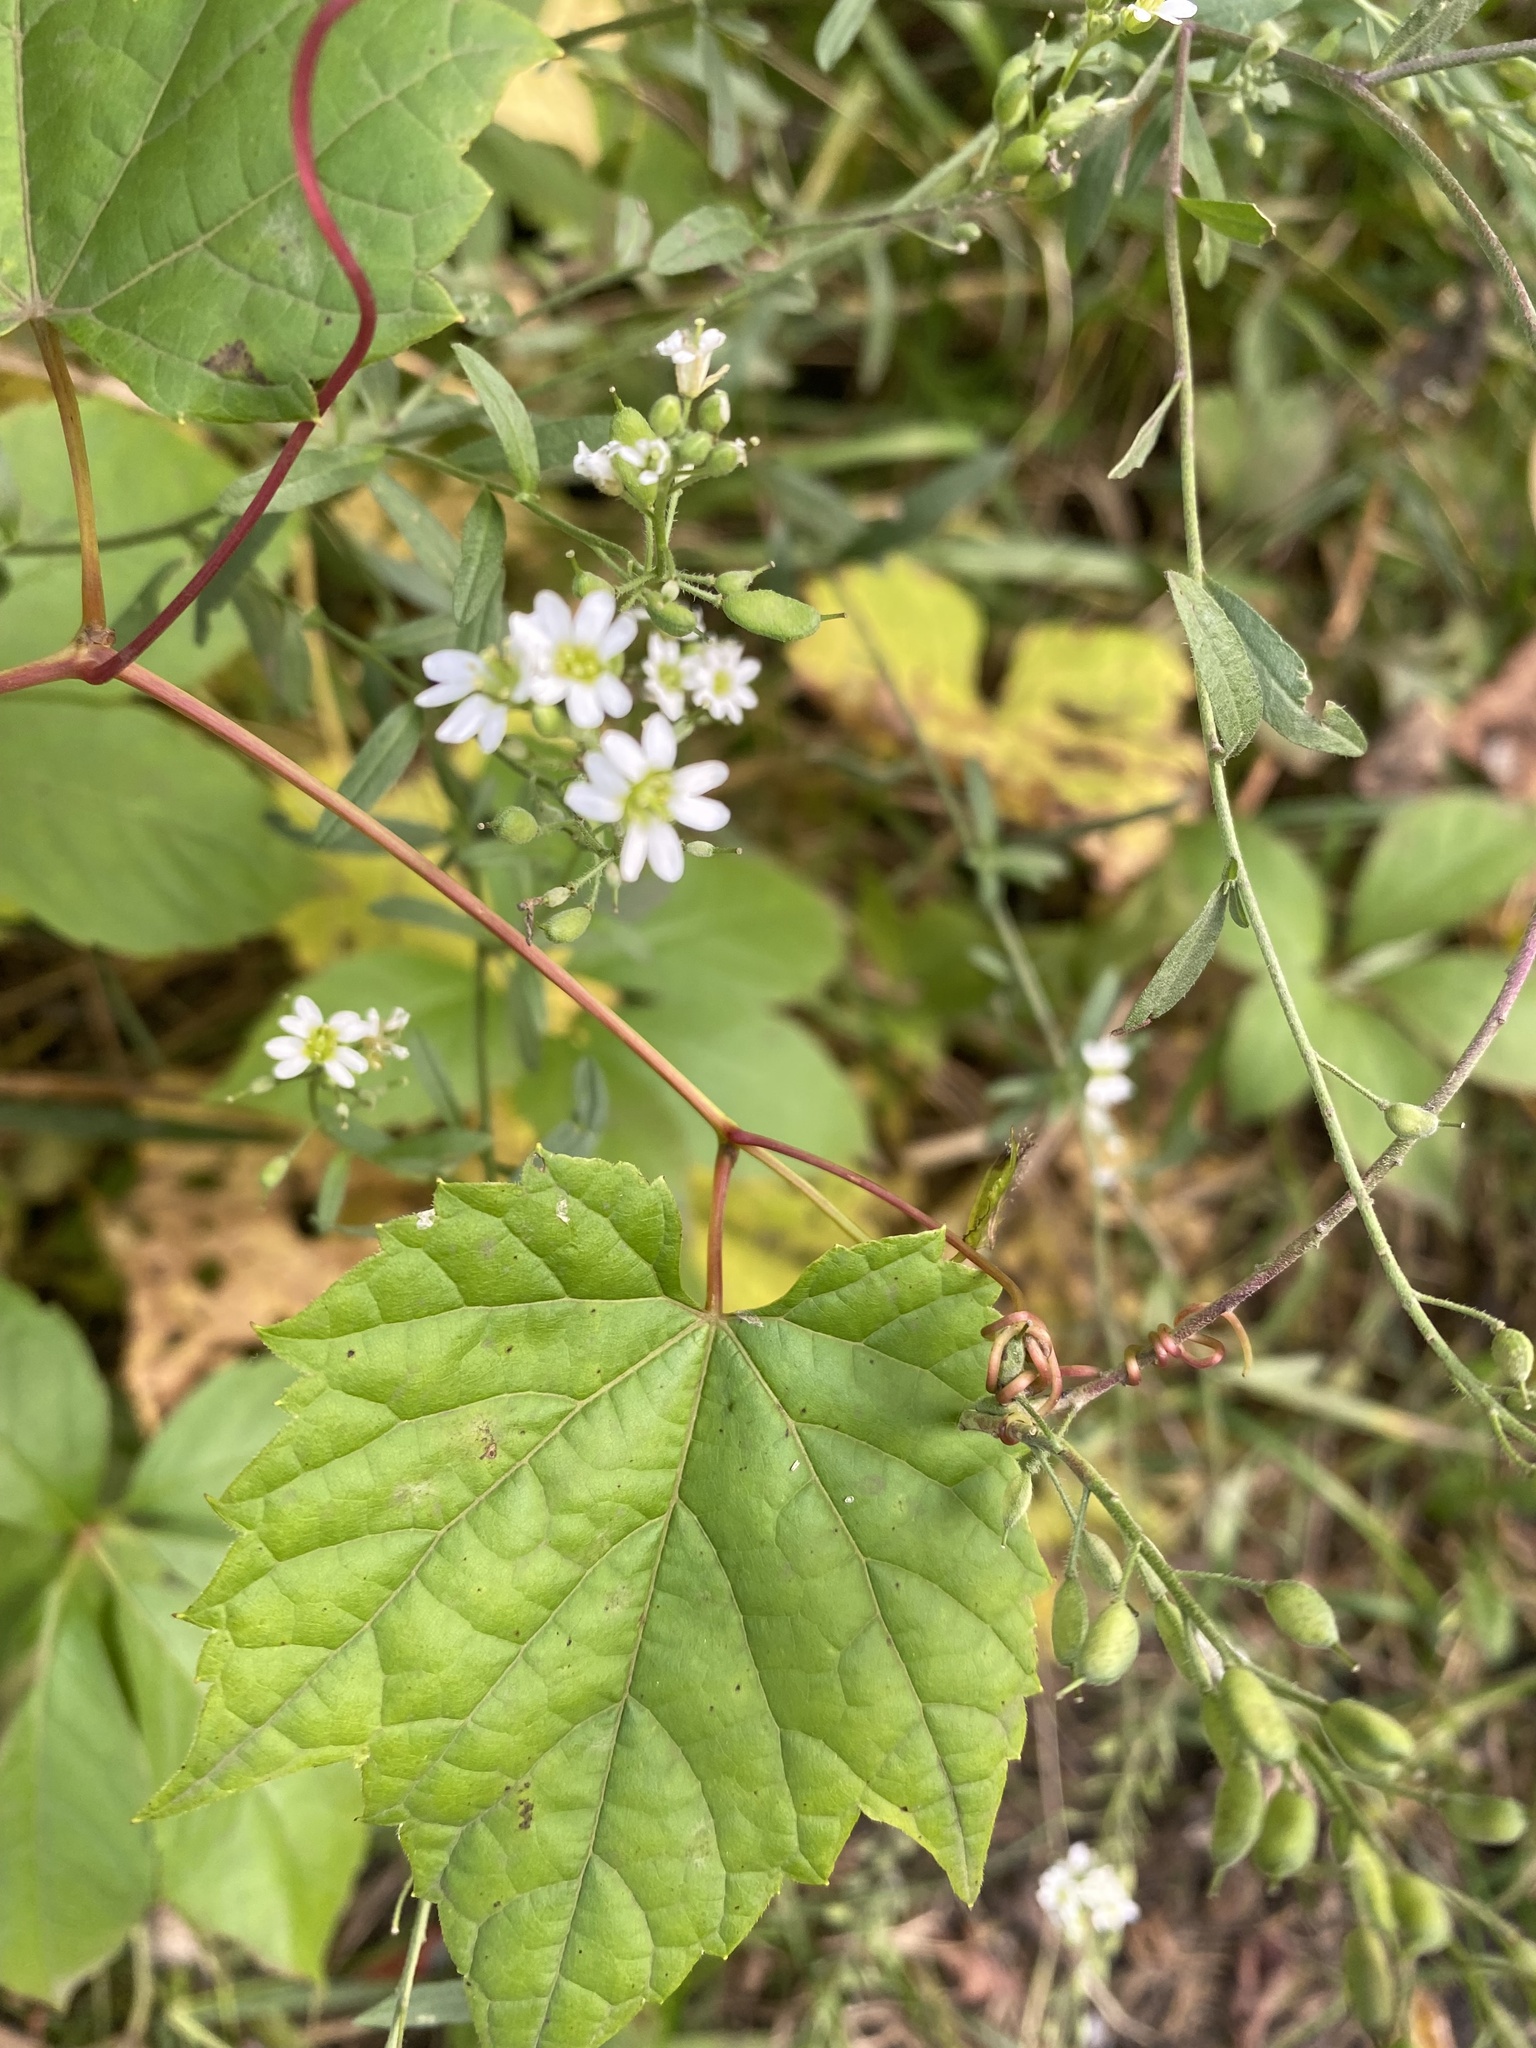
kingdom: Plantae
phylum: Tracheophyta
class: Magnoliopsida
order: Brassicales
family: Brassicaceae
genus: Berteroa
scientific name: Berteroa incana
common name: Hoary alison
